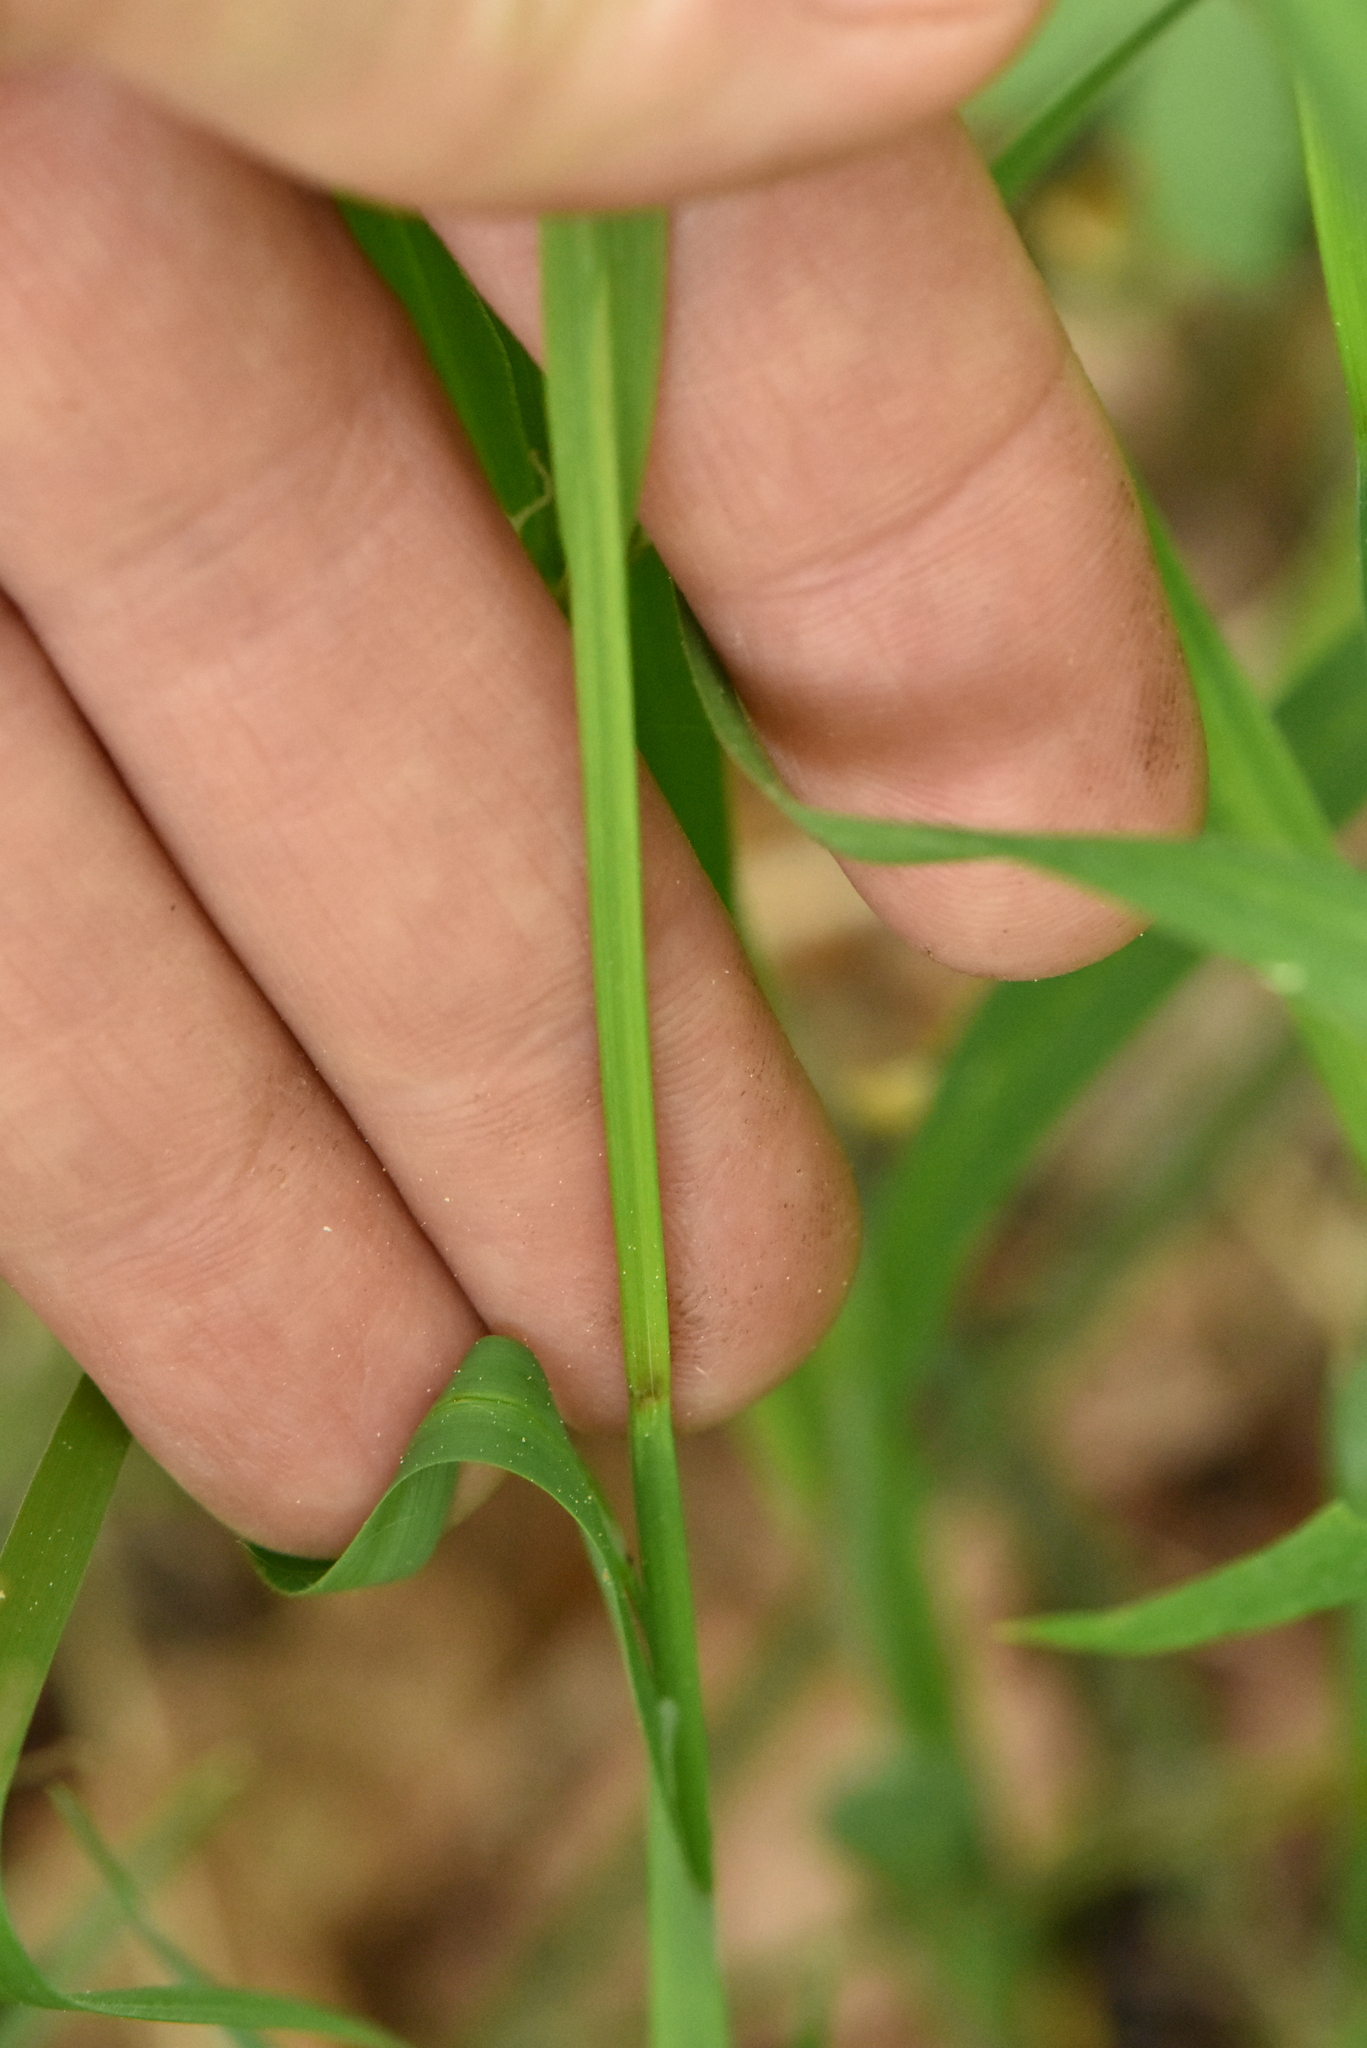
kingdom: Plantae
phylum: Tracheophyta
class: Liliopsida
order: Poales
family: Cyperaceae
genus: Carex
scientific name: Carex pilosa
